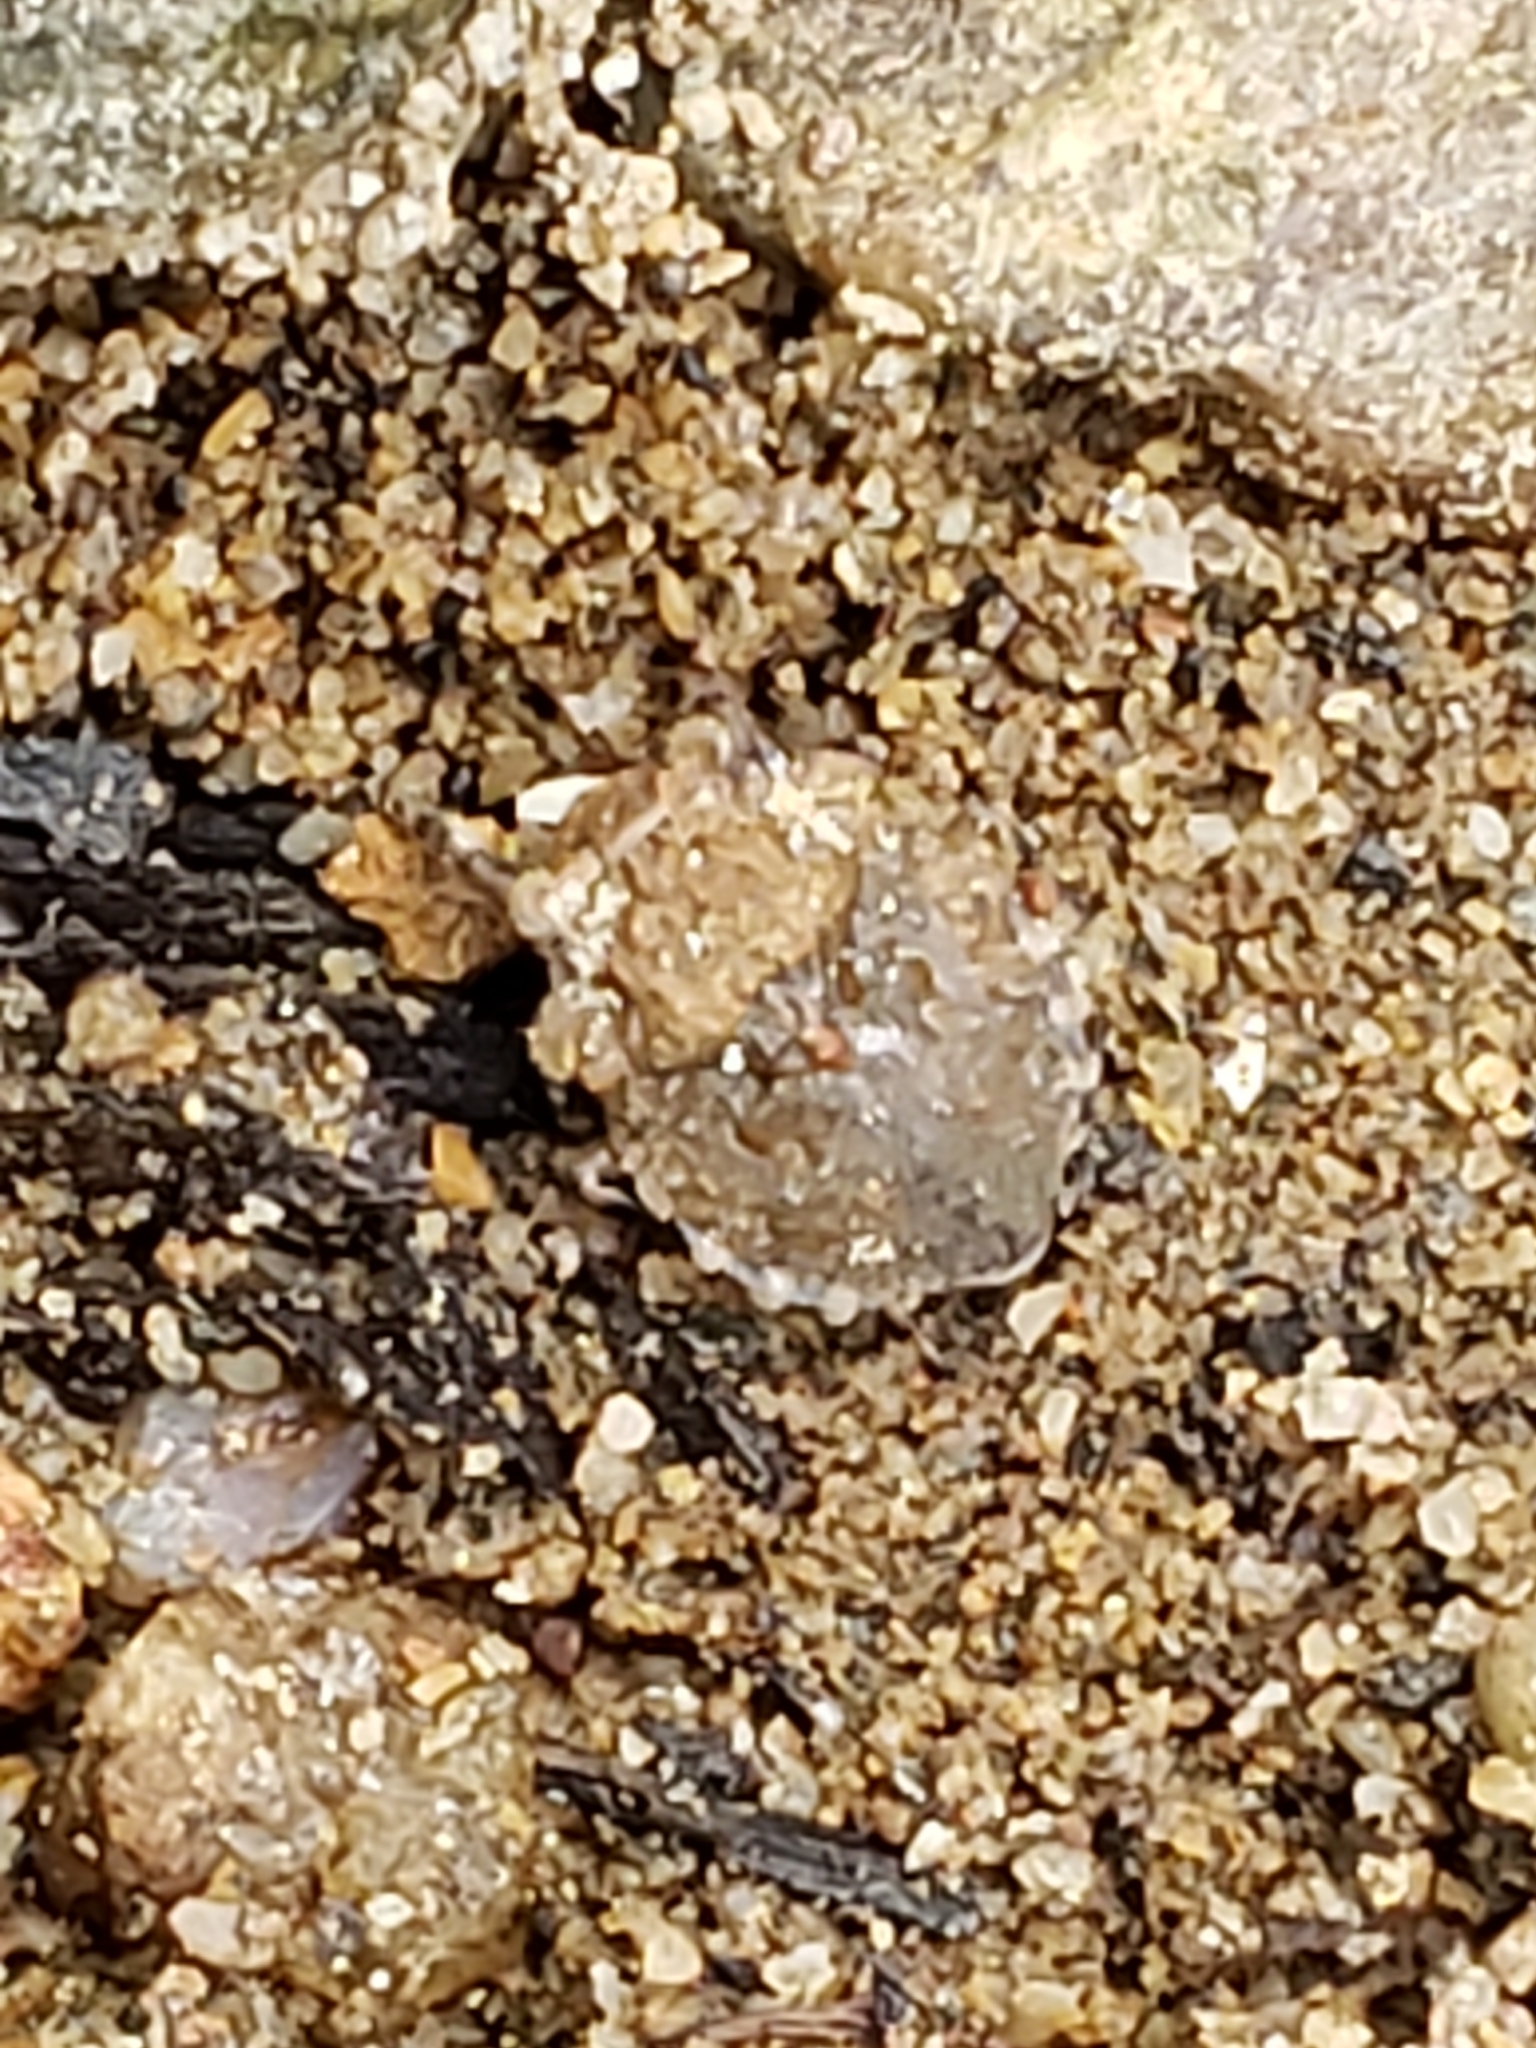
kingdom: Animalia
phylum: Arthropoda
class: Insecta
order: Hemiptera
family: Gelastocoridae
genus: Gelastocoris
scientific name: Gelastocoris oculatus
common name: Toad bug
